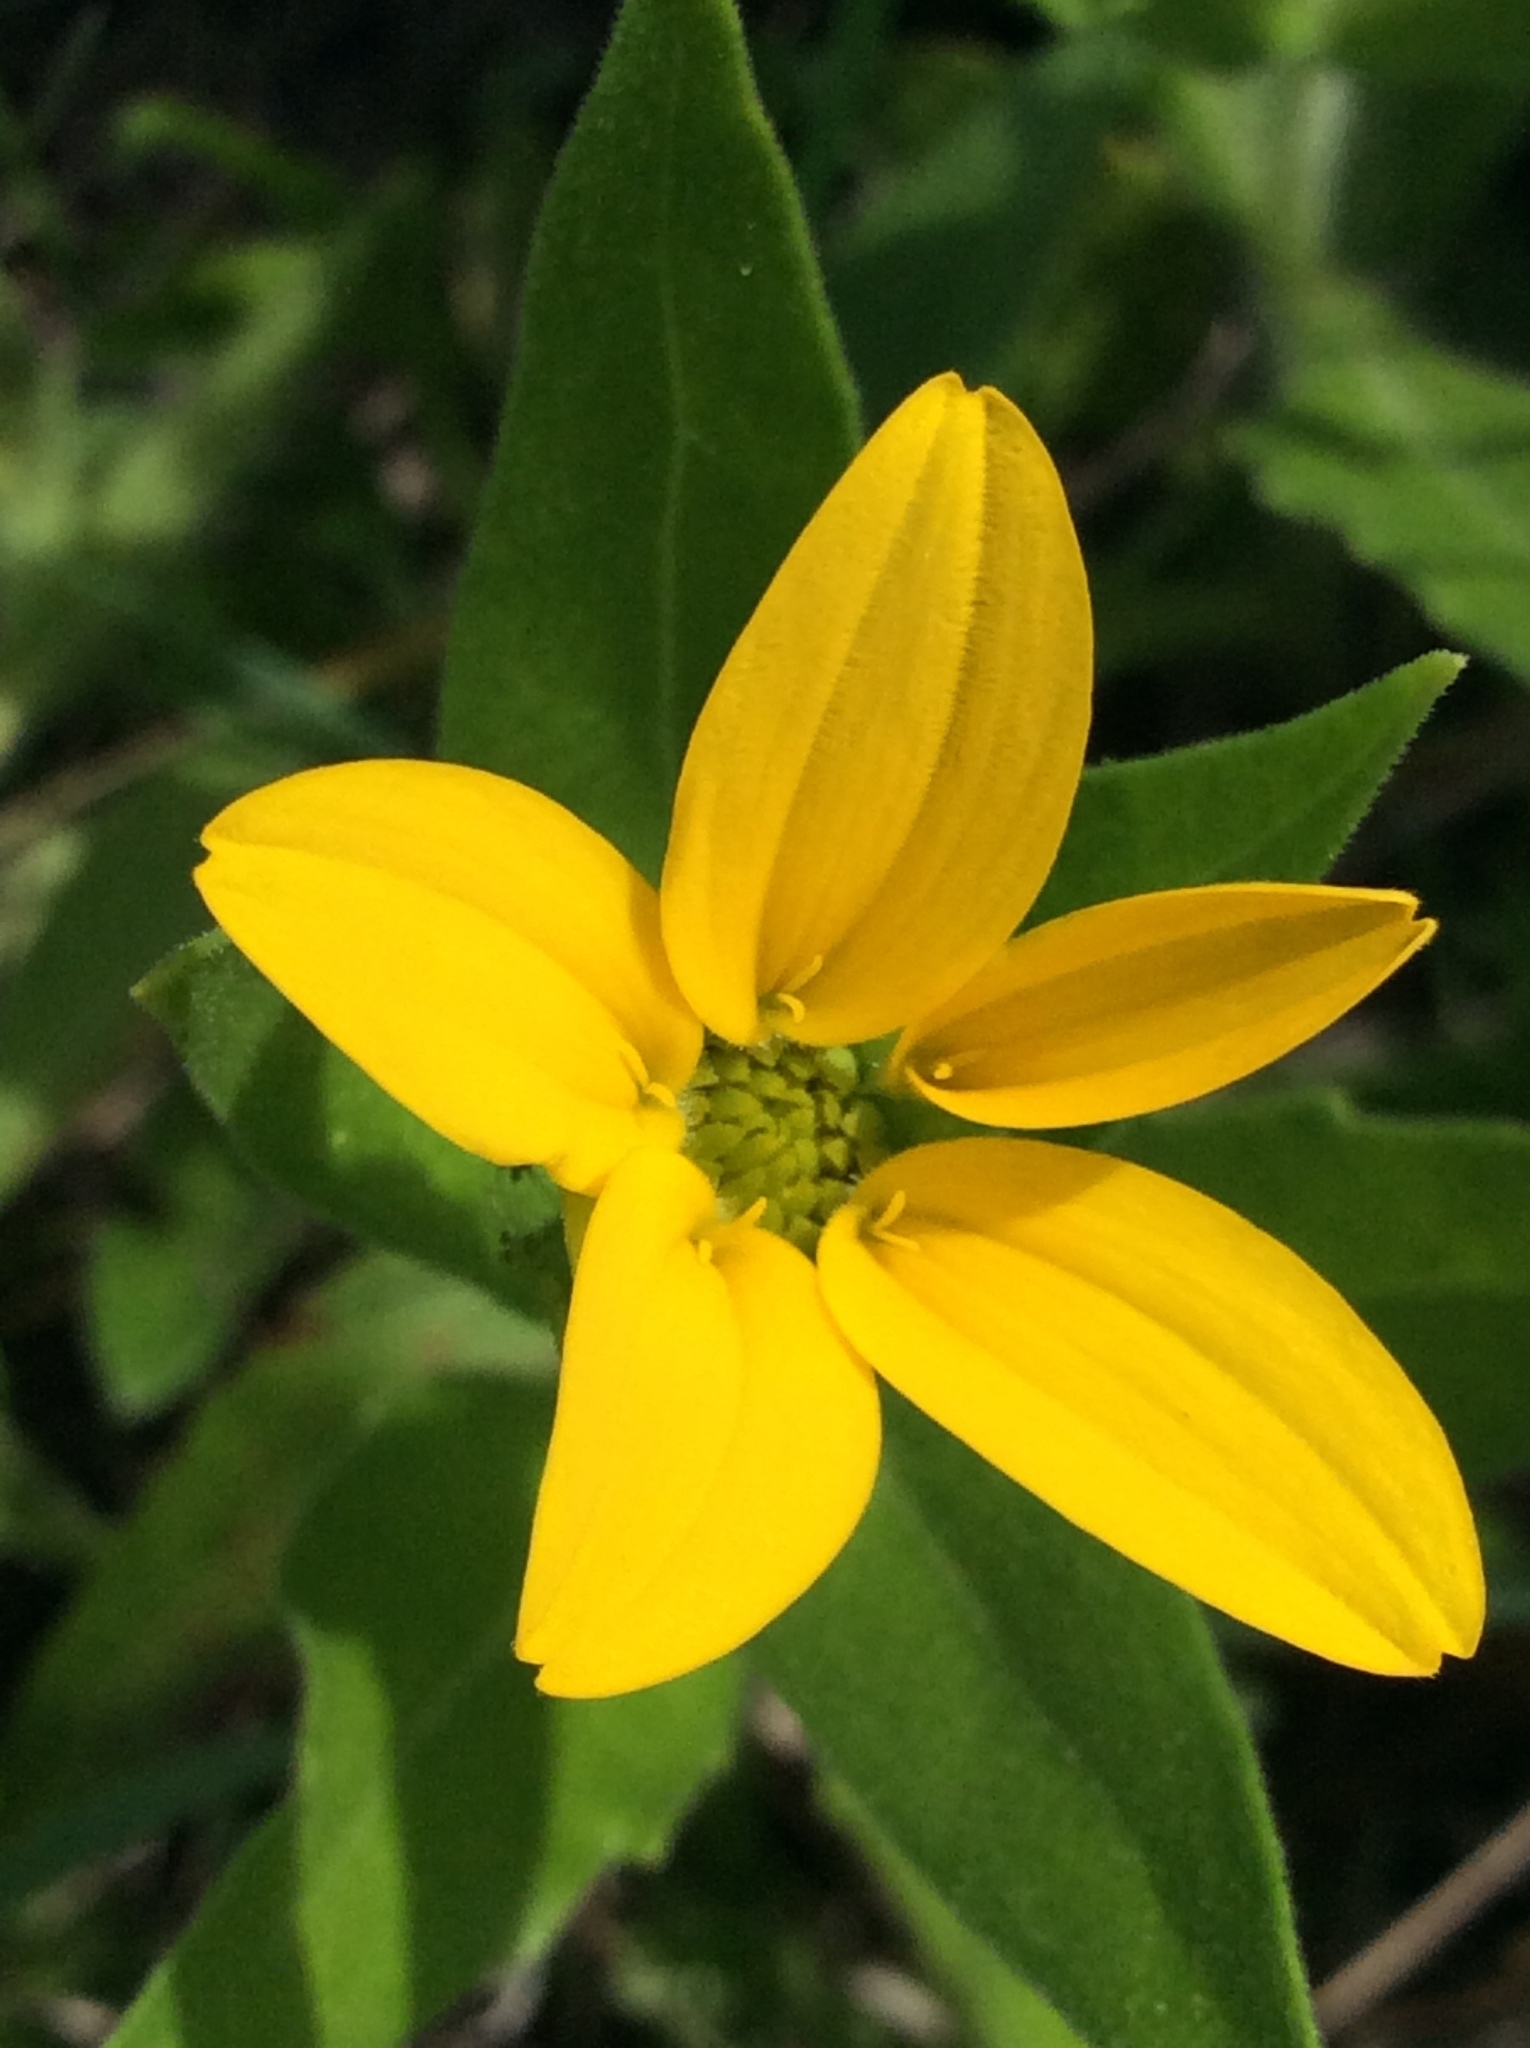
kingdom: Plantae
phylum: Tracheophyta
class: Magnoliopsida
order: Asterales
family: Asteraceae
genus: Lindheimera
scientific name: Lindheimera texana
